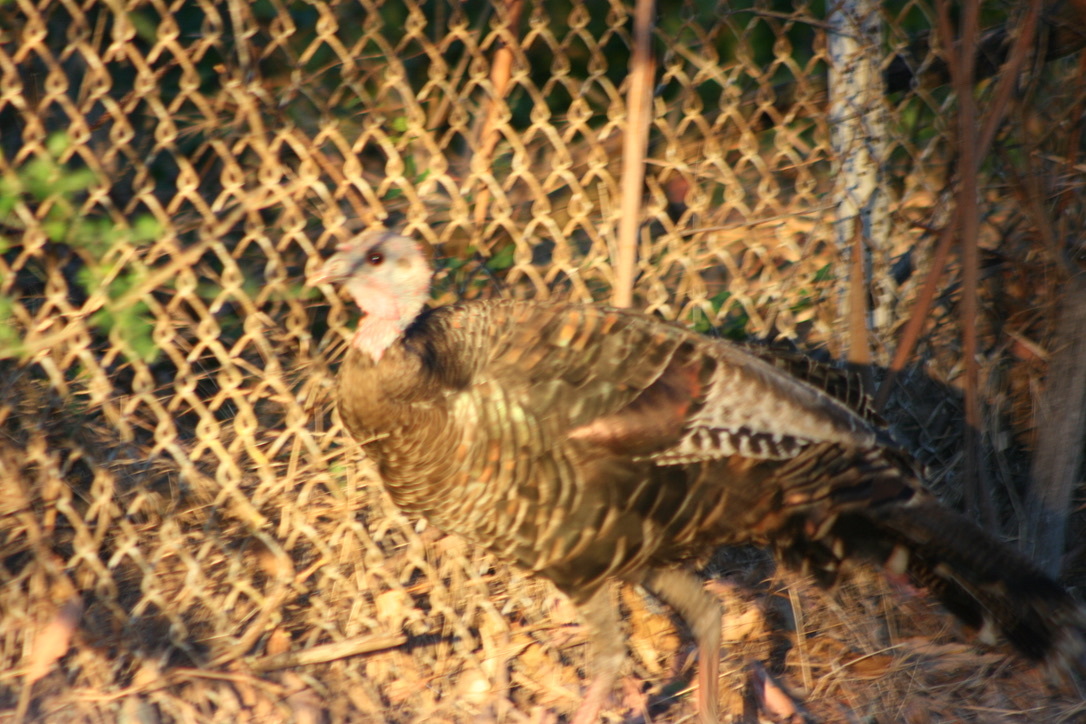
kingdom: Animalia
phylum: Chordata
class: Aves
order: Galliformes
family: Phasianidae
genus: Meleagris
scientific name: Meleagris gallopavo
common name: Wild turkey
